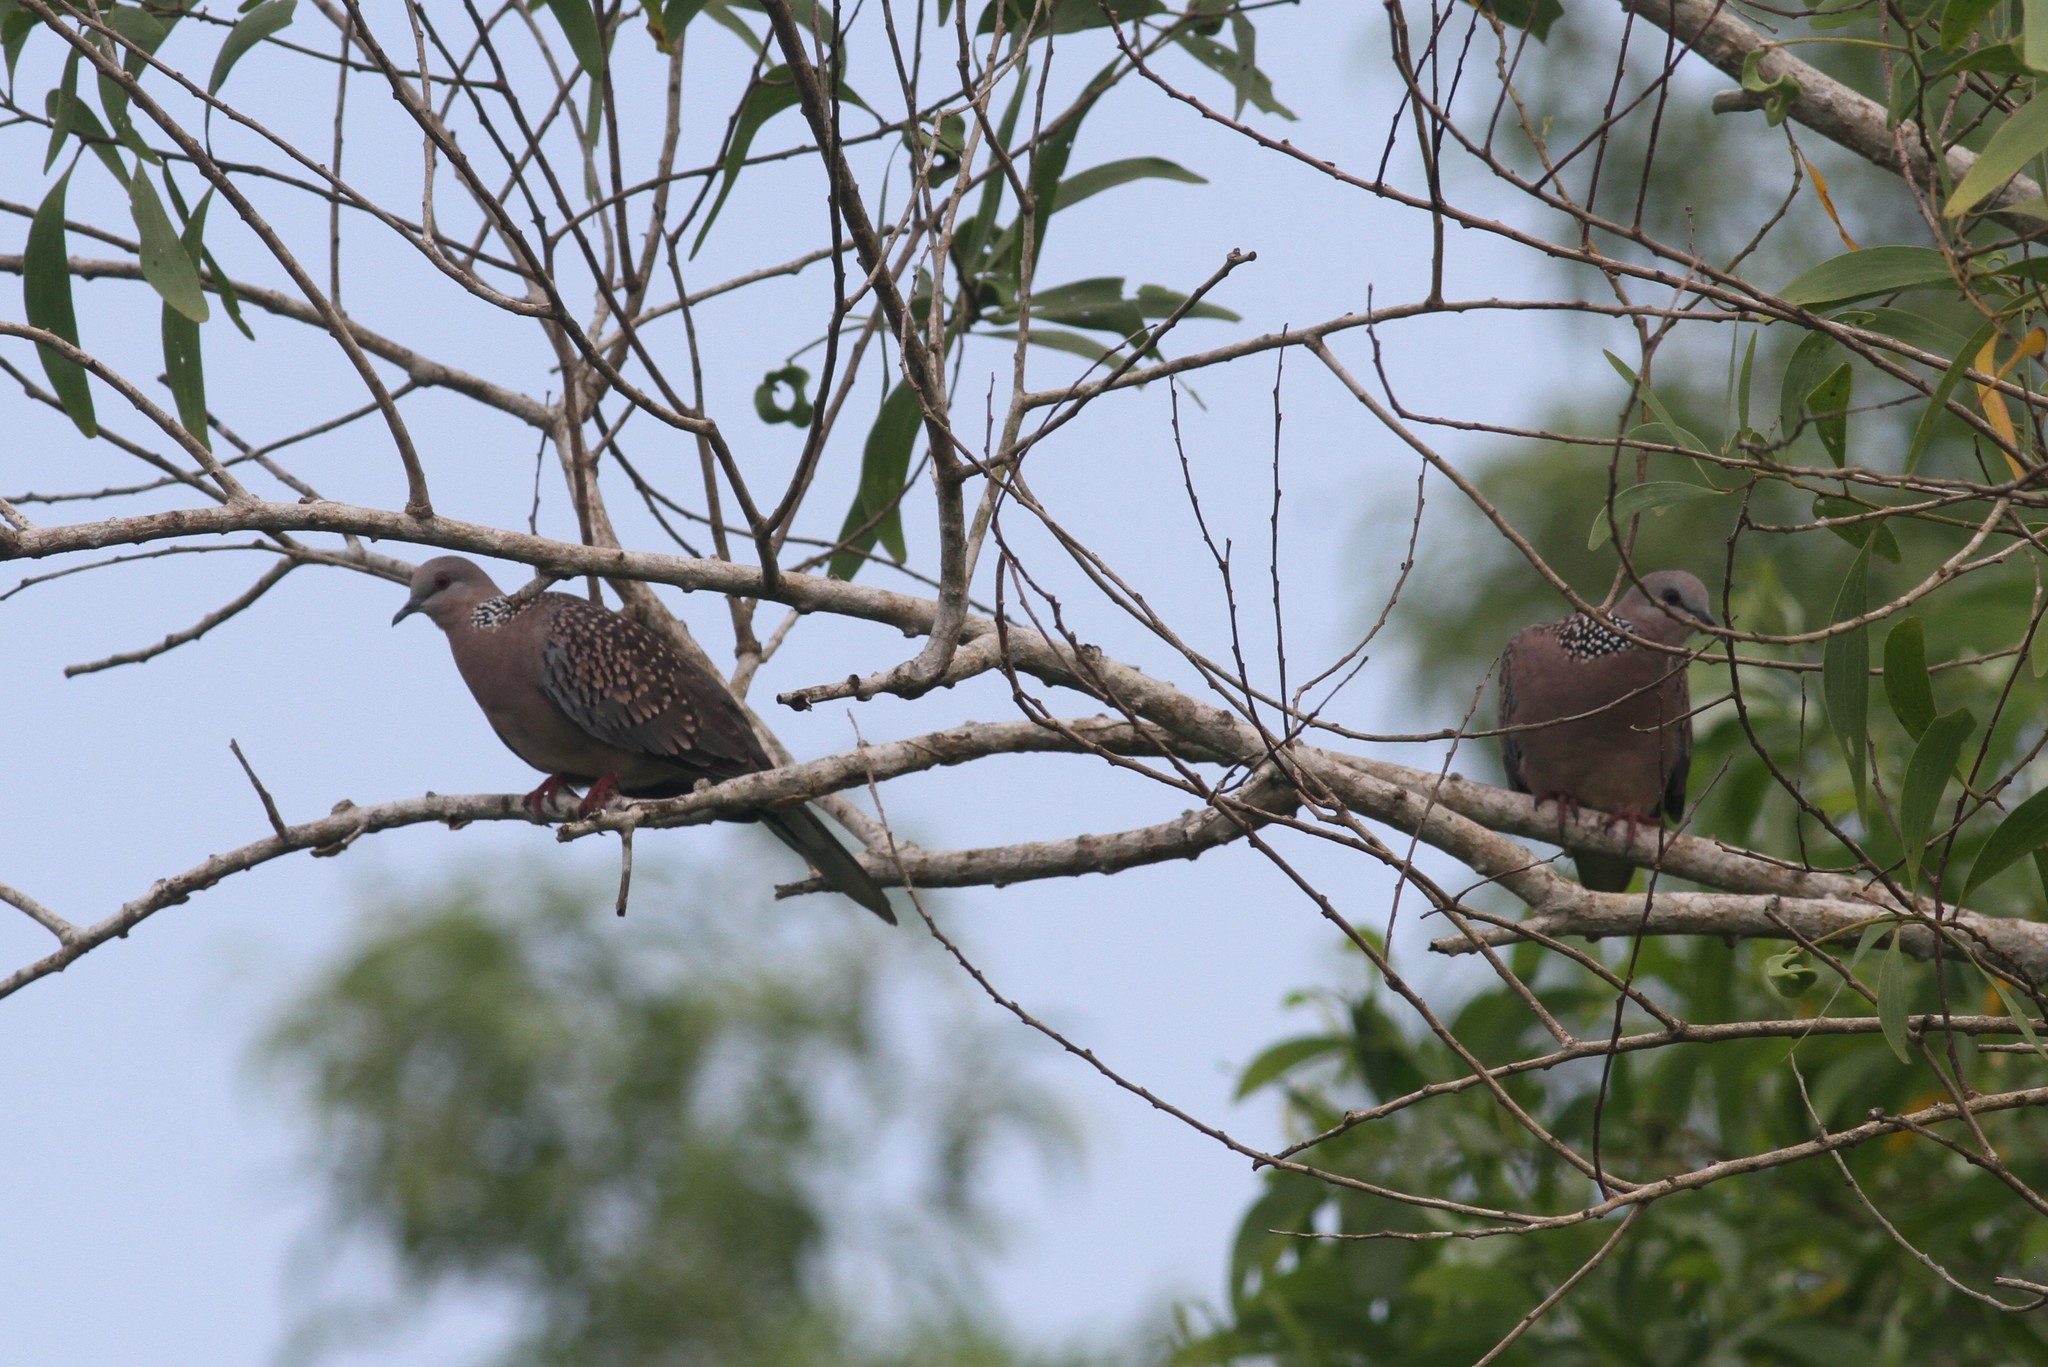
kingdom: Animalia
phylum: Chordata
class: Aves
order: Columbiformes
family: Columbidae
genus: Spilopelia
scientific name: Spilopelia chinensis
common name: Spotted dove
